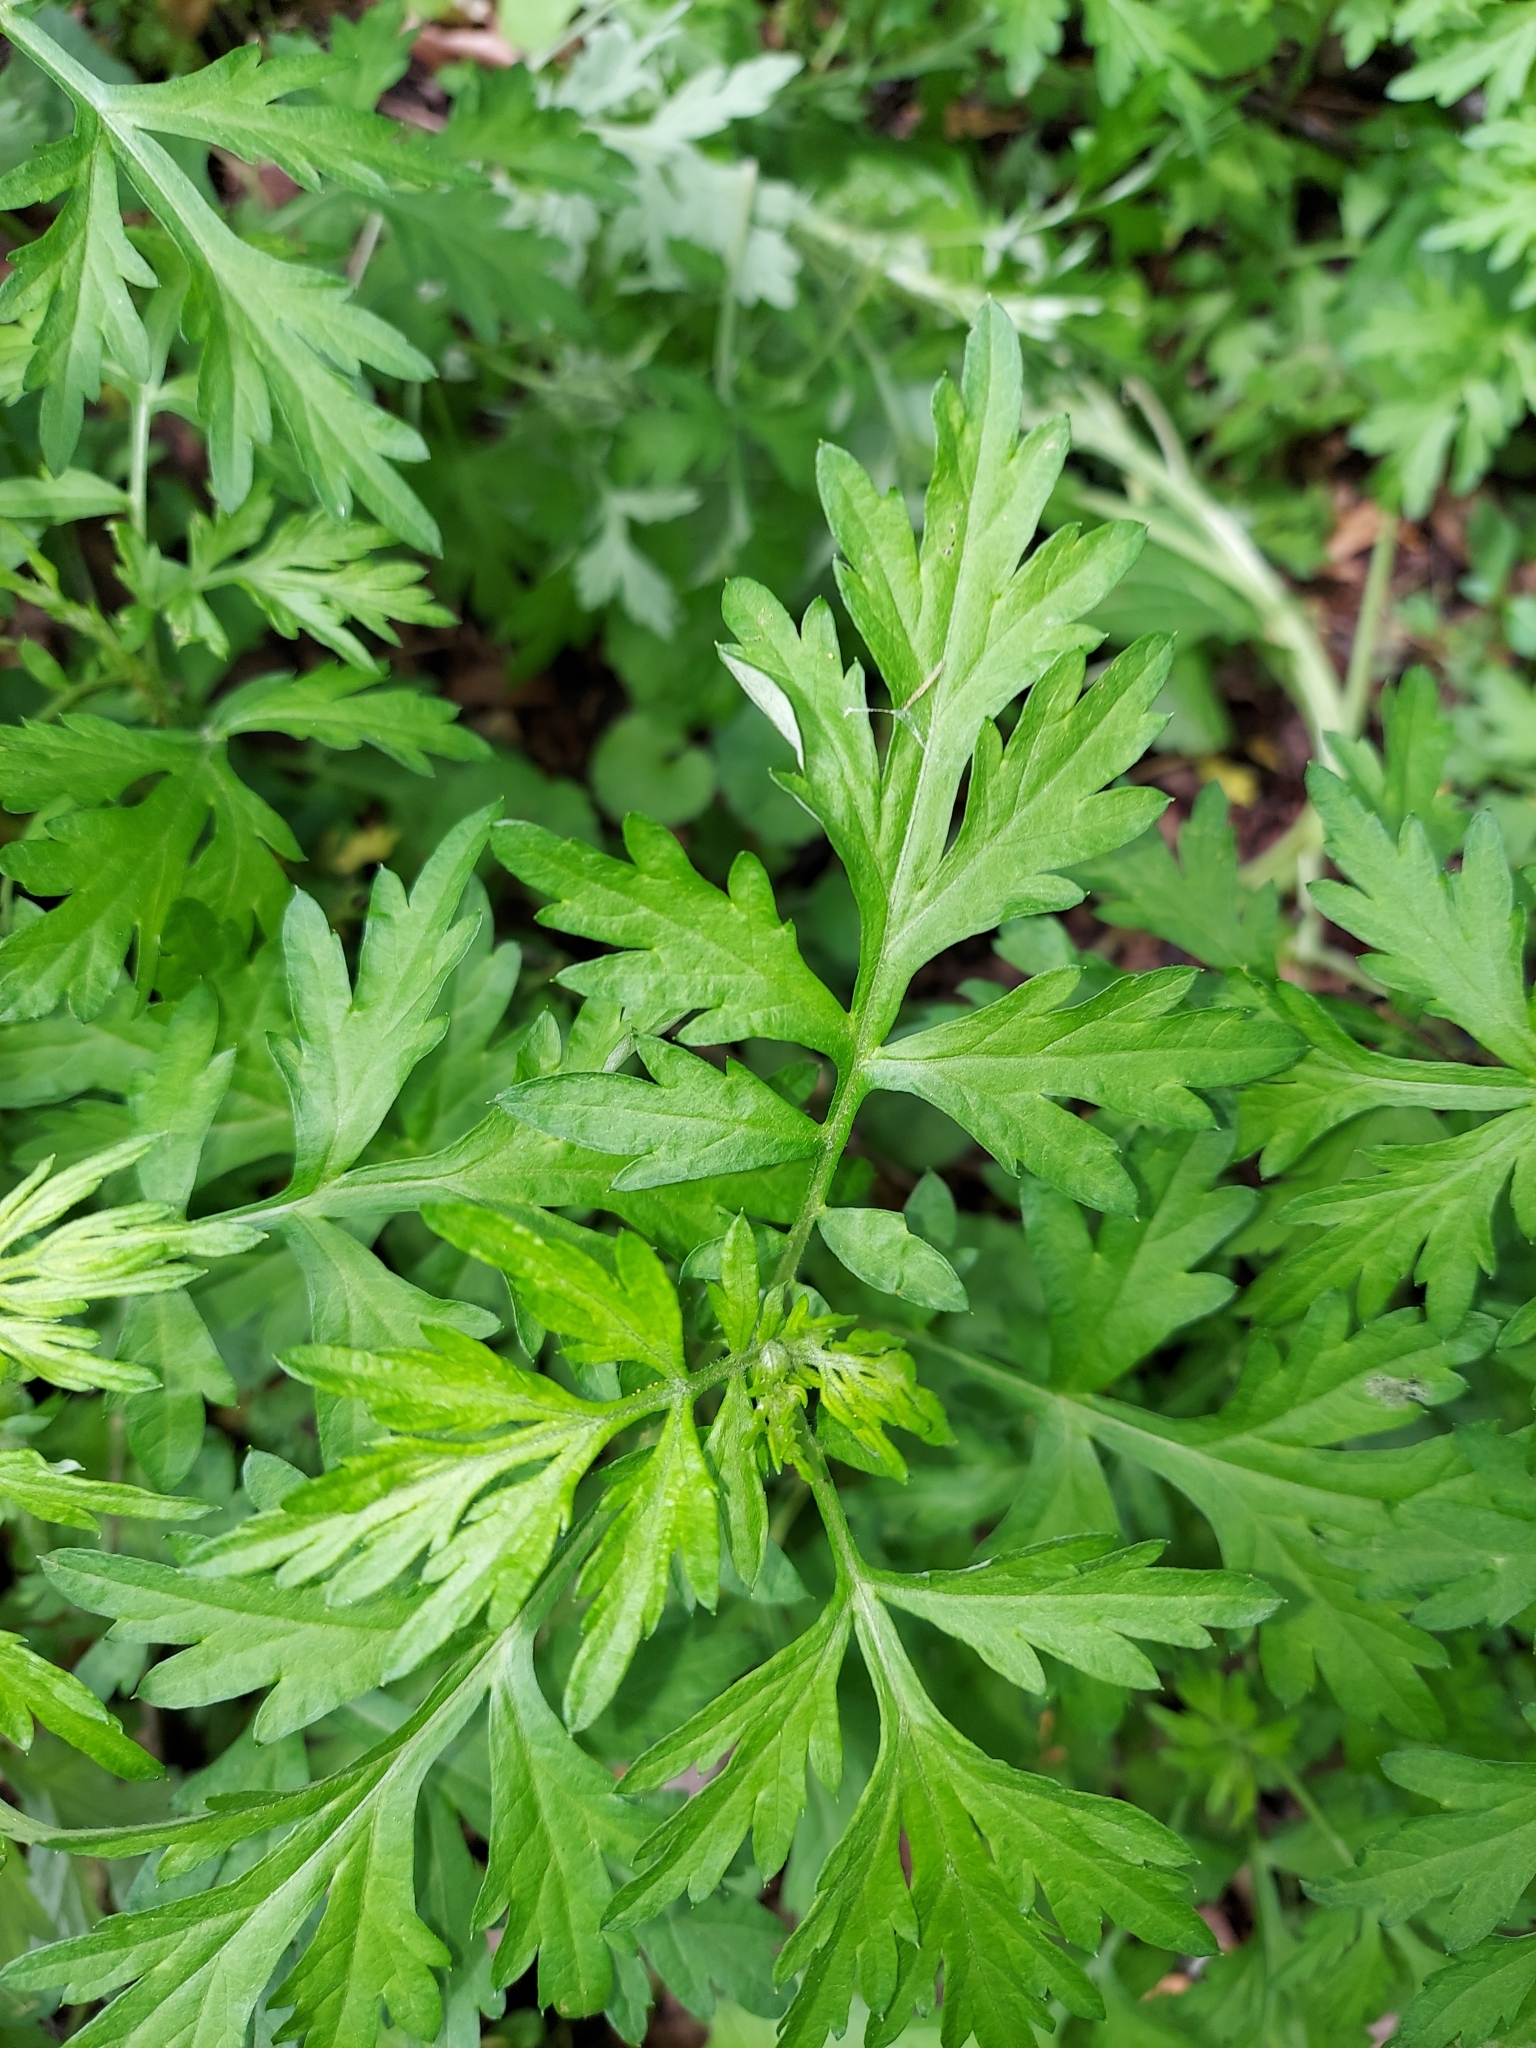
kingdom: Plantae
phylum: Tracheophyta
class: Magnoliopsida
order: Asterales
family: Asteraceae
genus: Artemisia
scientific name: Artemisia vulgaris
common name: Mugwort
